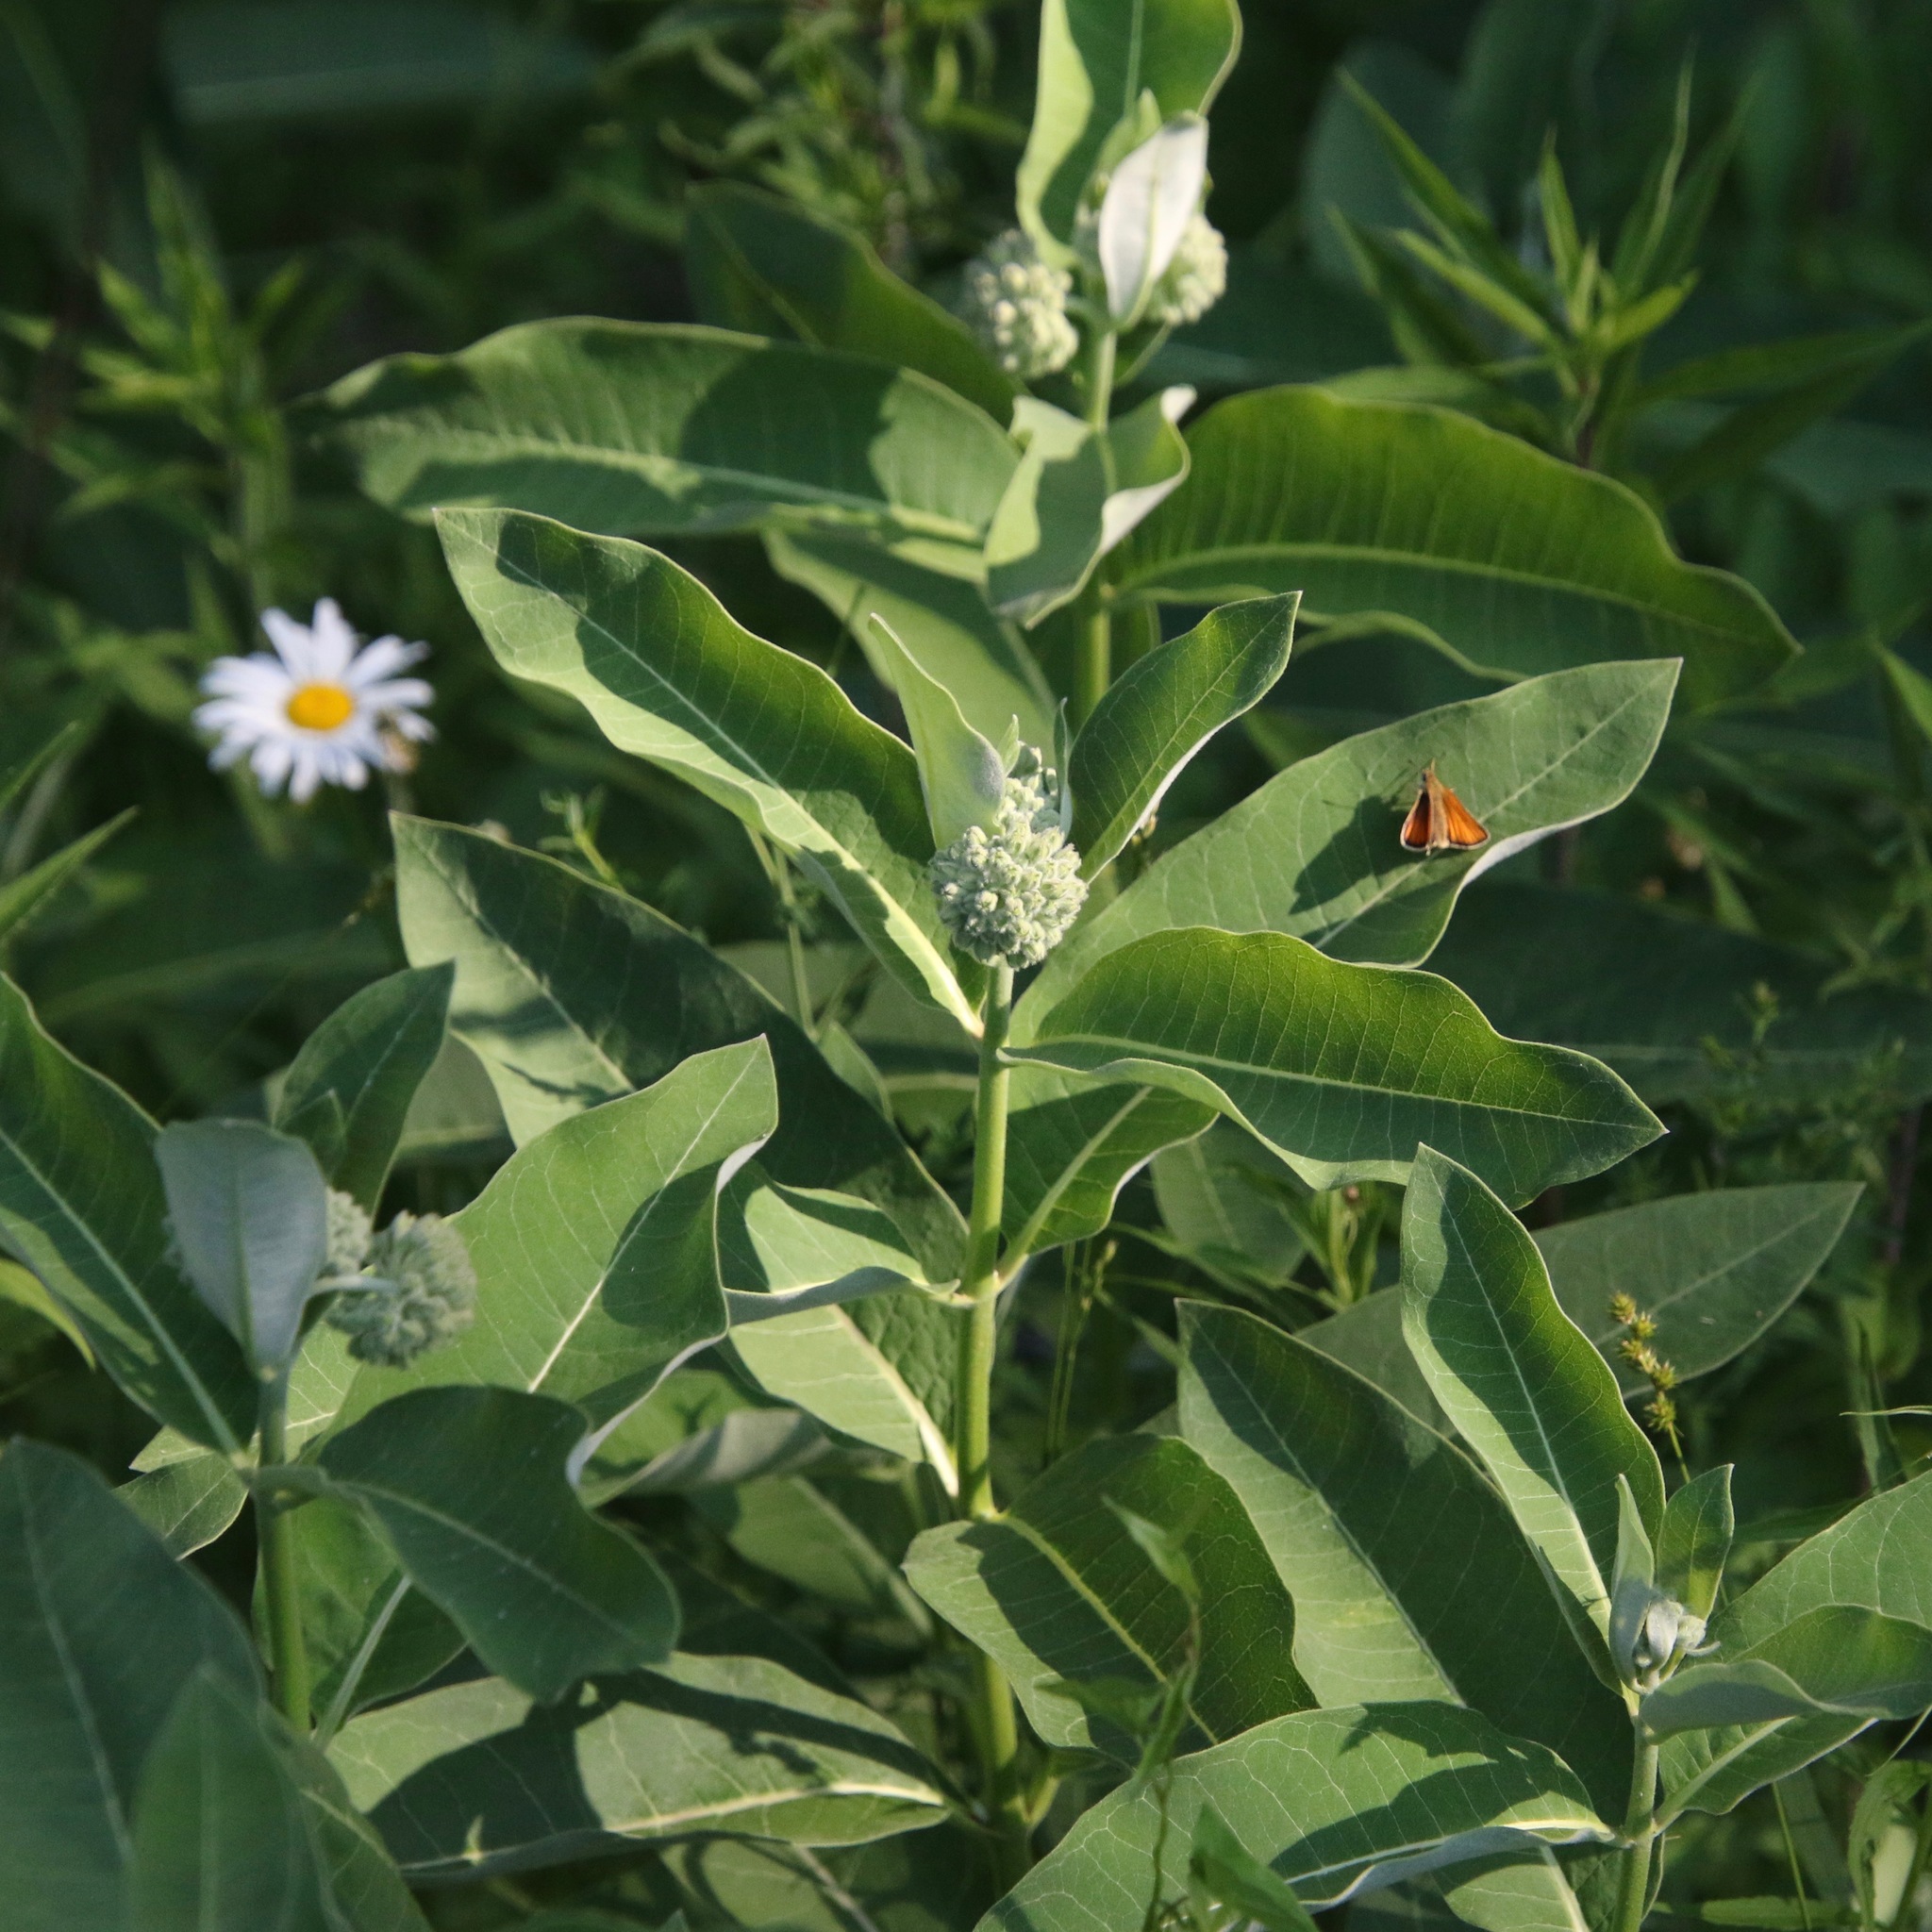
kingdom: Plantae
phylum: Tracheophyta
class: Magnoliopsida
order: Gentianales
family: Apocynaceae
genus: Asclepias
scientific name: Asclepias syriaca
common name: Common milkweed
